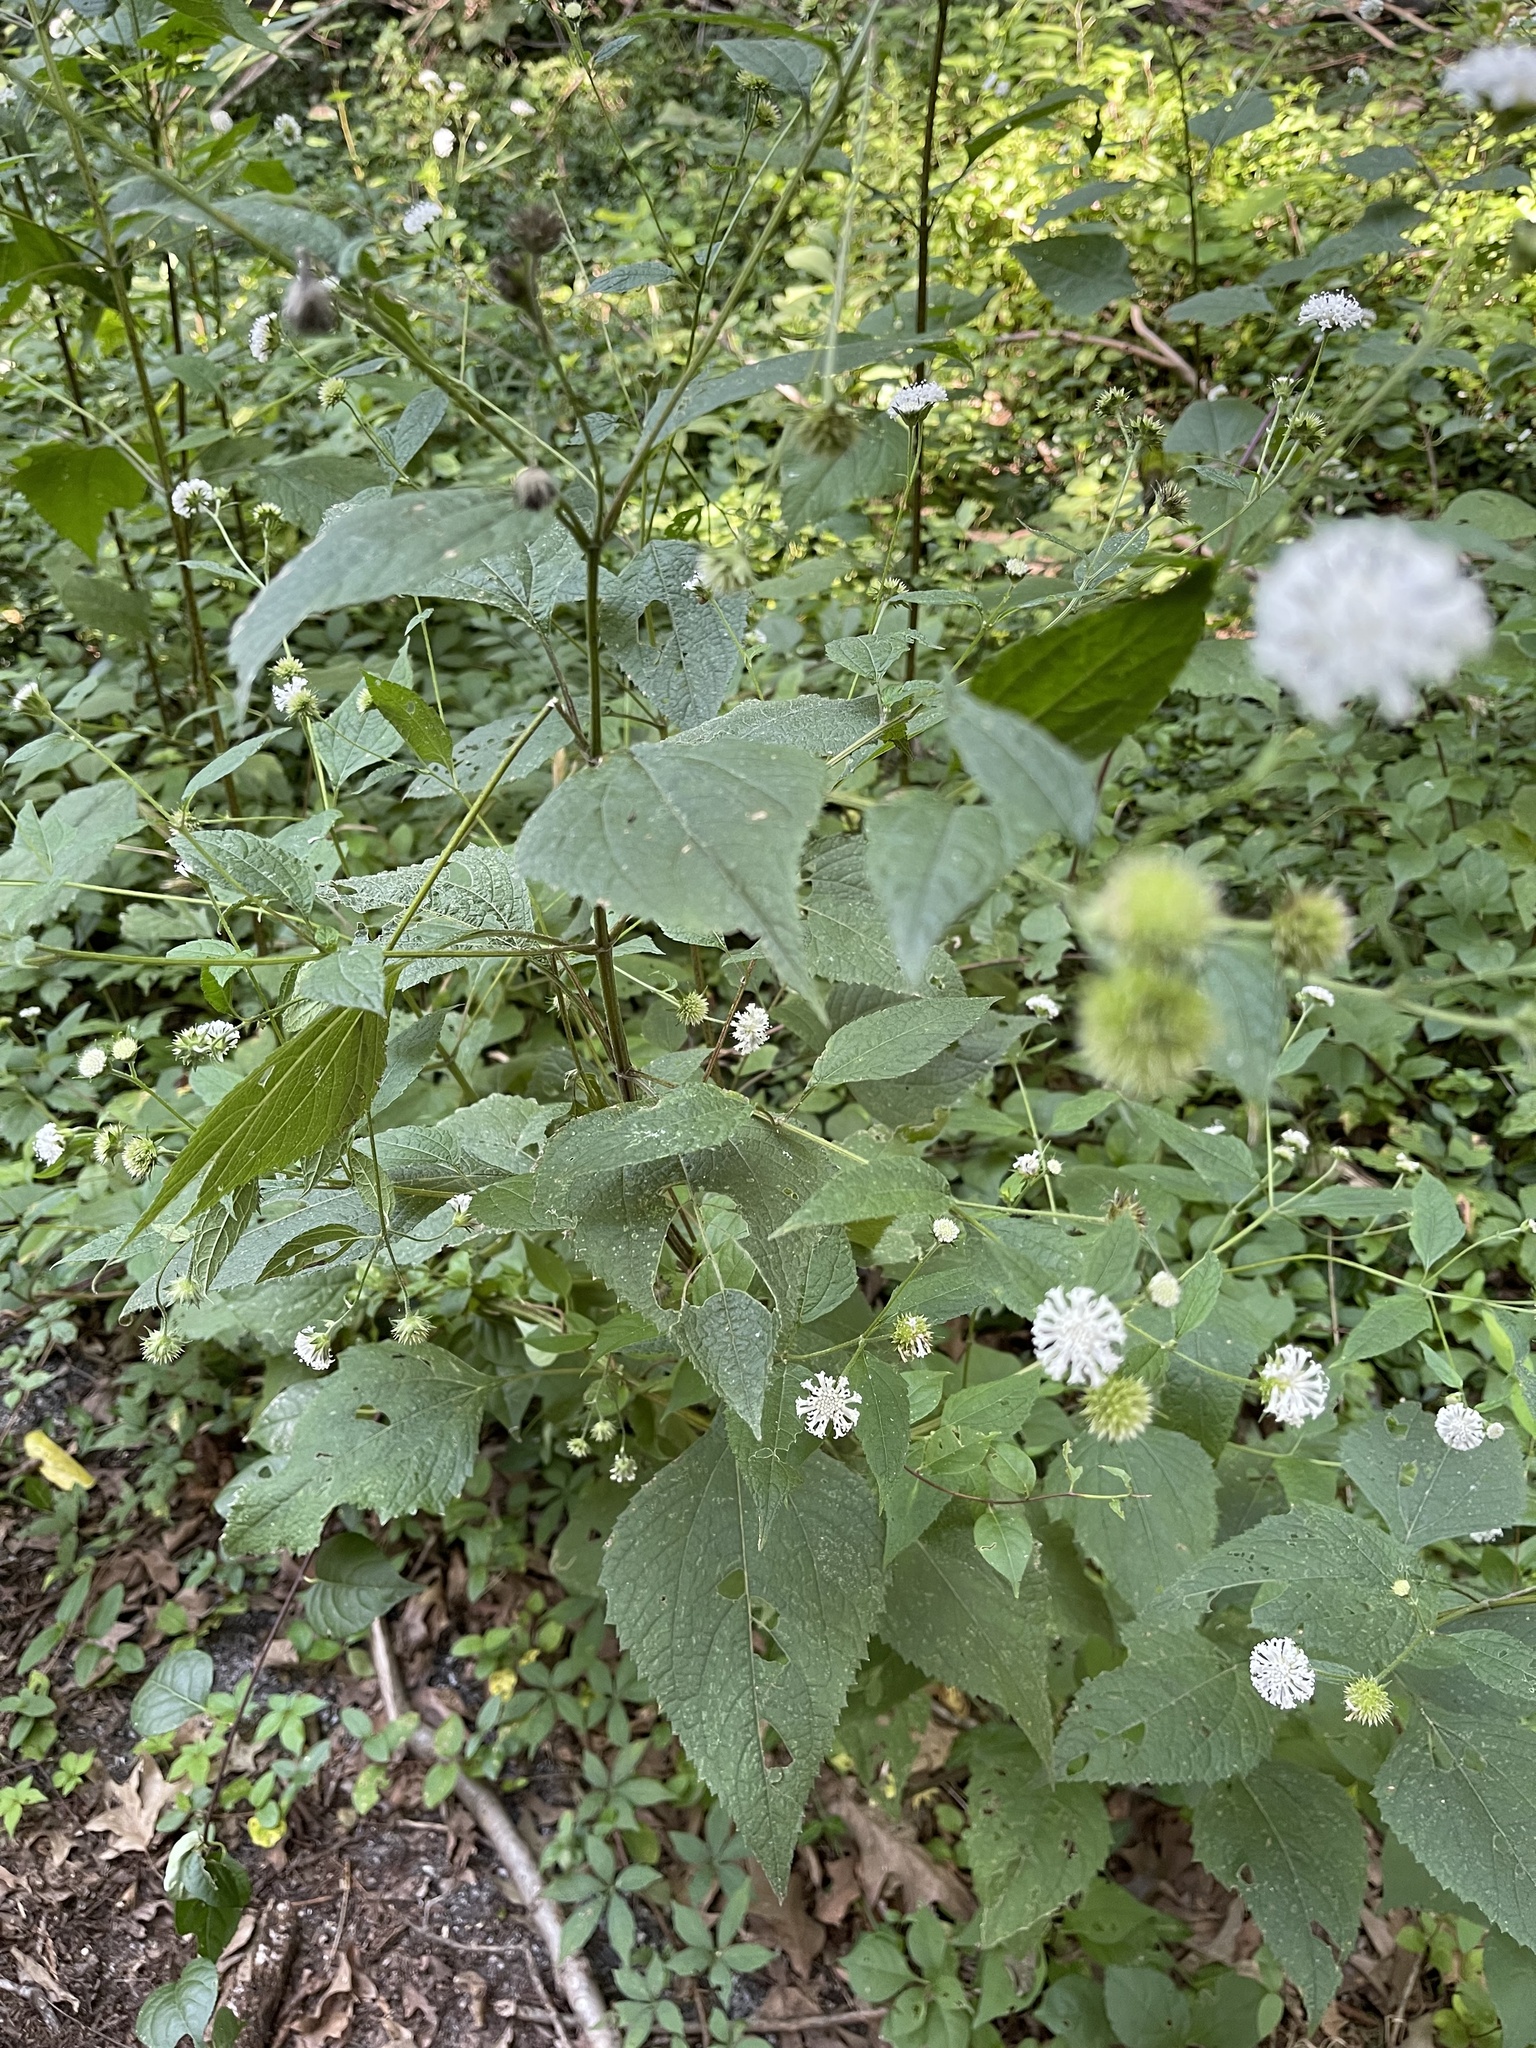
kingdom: Plantae
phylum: Tracheophyta
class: Magnoliopsida
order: Asterales
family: Asteraceae
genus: Melanthera
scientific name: Melanthera nivea
